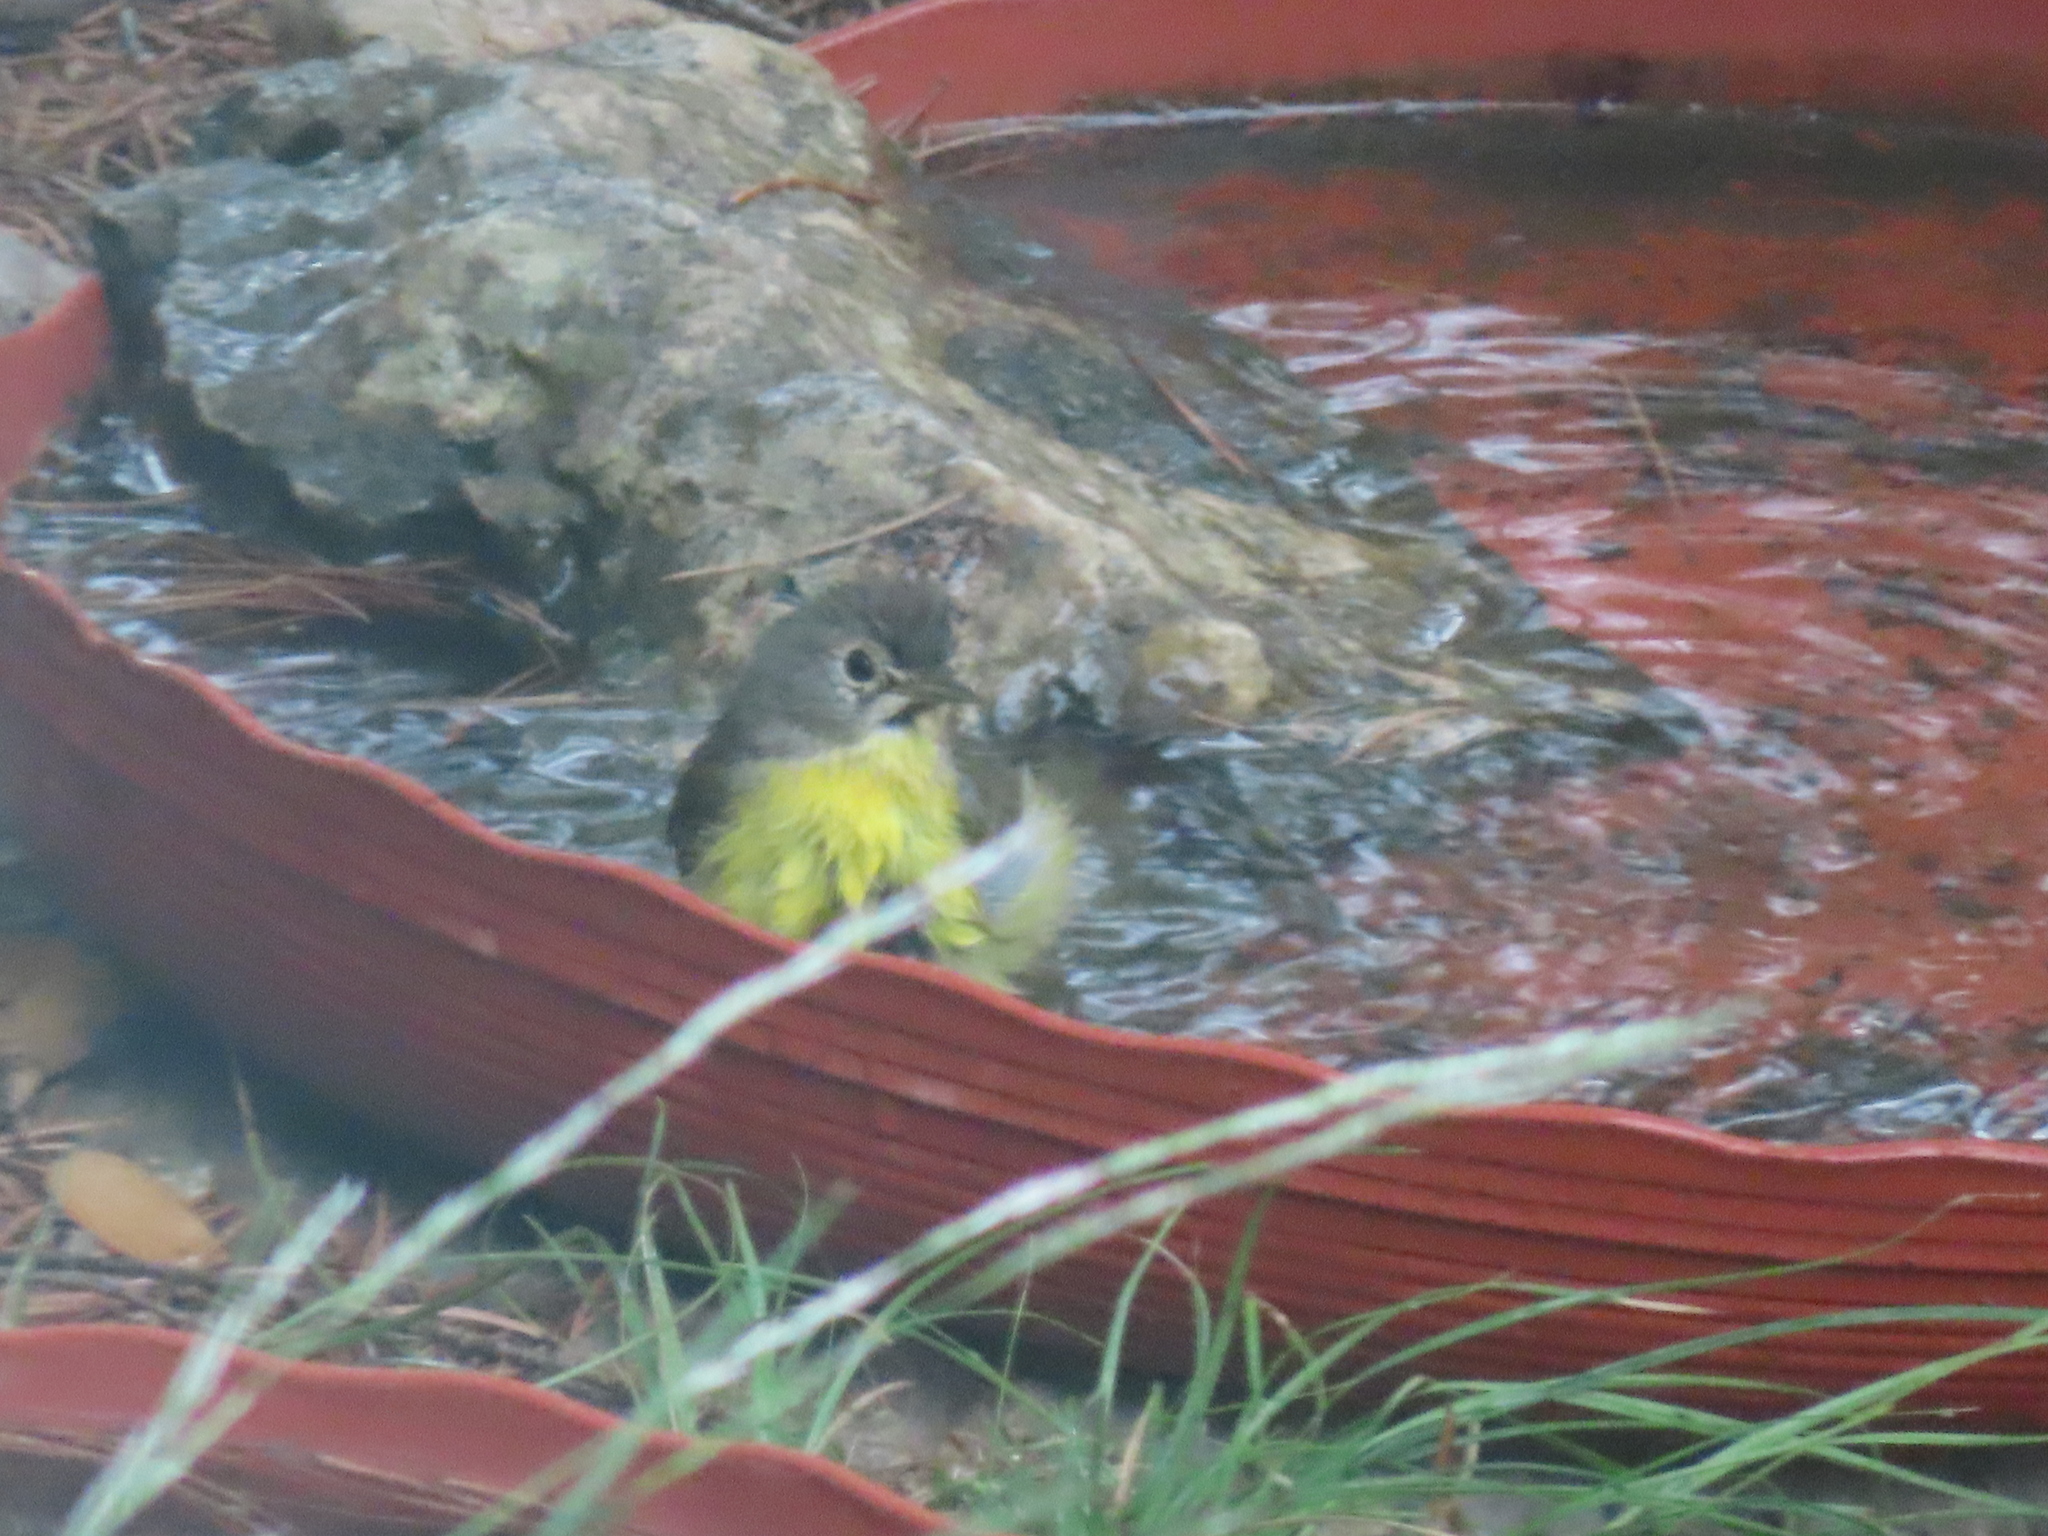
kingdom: Animalia
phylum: Chordata
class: Aves
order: Passeriformes
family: Parulidae
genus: Leiothlypis
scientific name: Leiothlypis ruficapilla
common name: Nashville warbler
